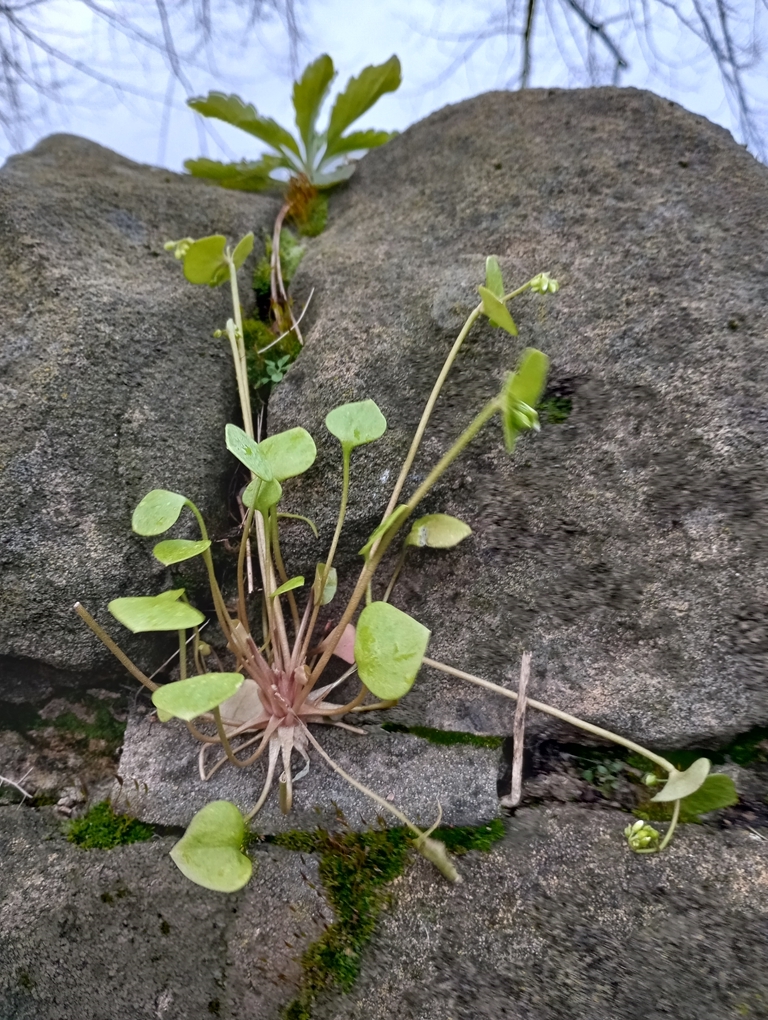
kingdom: Plantae
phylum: Tracheophyta
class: Magnoliopsida
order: Caryophyllales
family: Montiaceae
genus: Claytonia
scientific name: Claytonia perfoliata
